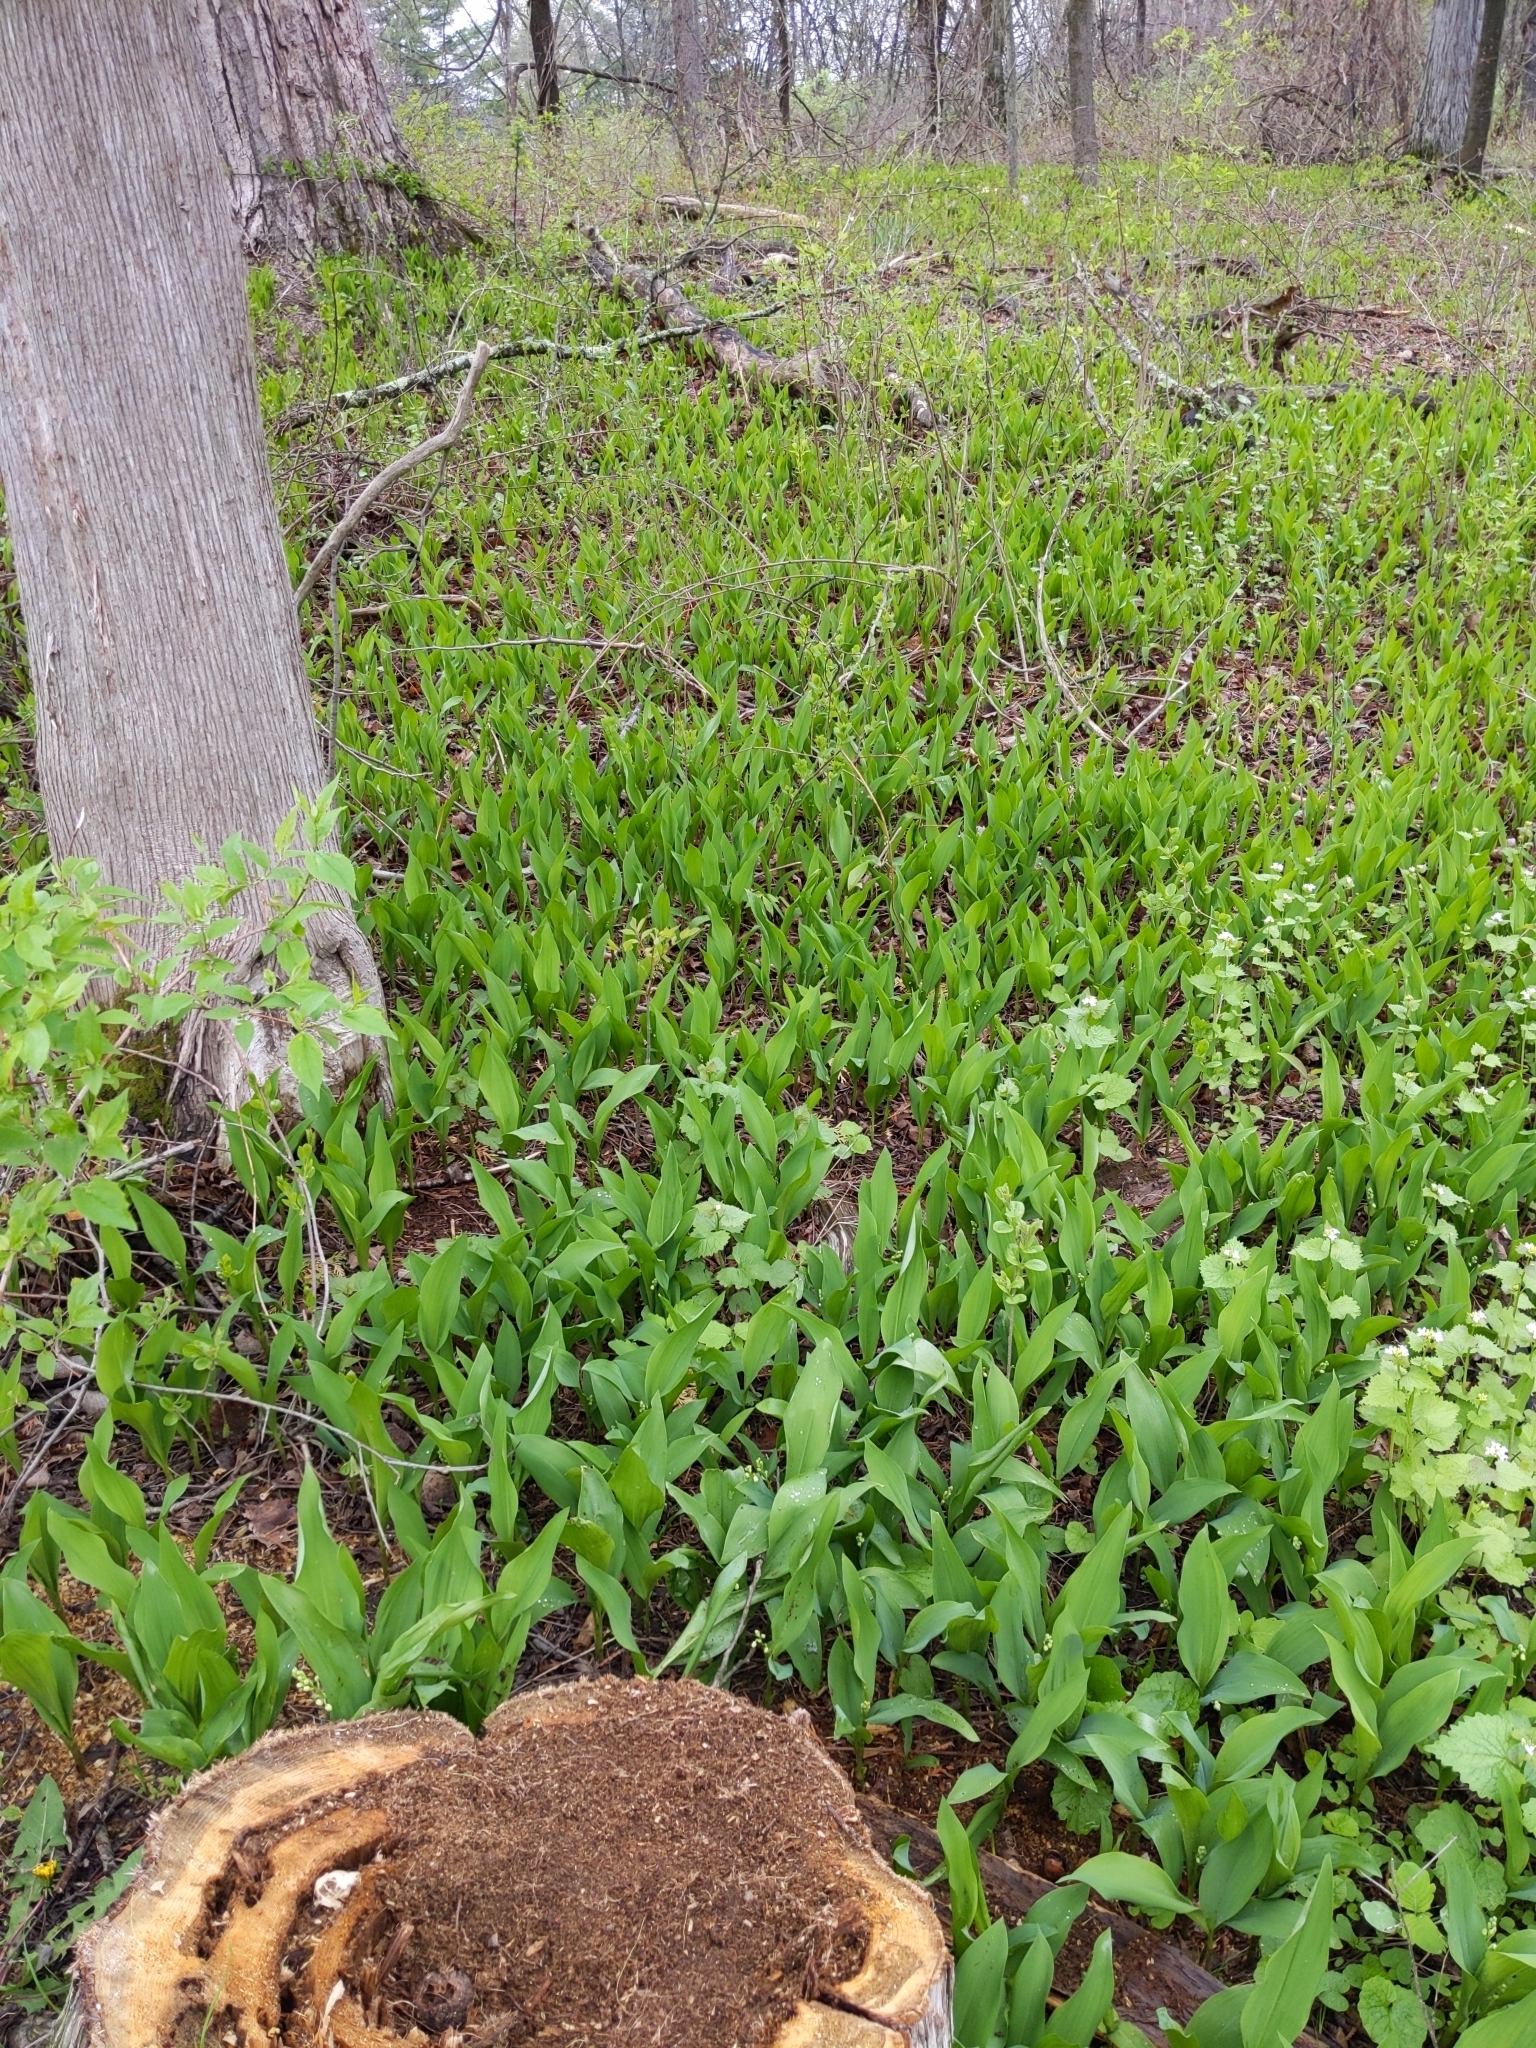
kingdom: Plantae
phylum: Tracheophyta
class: Liliopsida
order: Asparagales
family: Asparagaceae
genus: Convallaria
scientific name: Convallaria majalis
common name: Lily-of-the-valley
